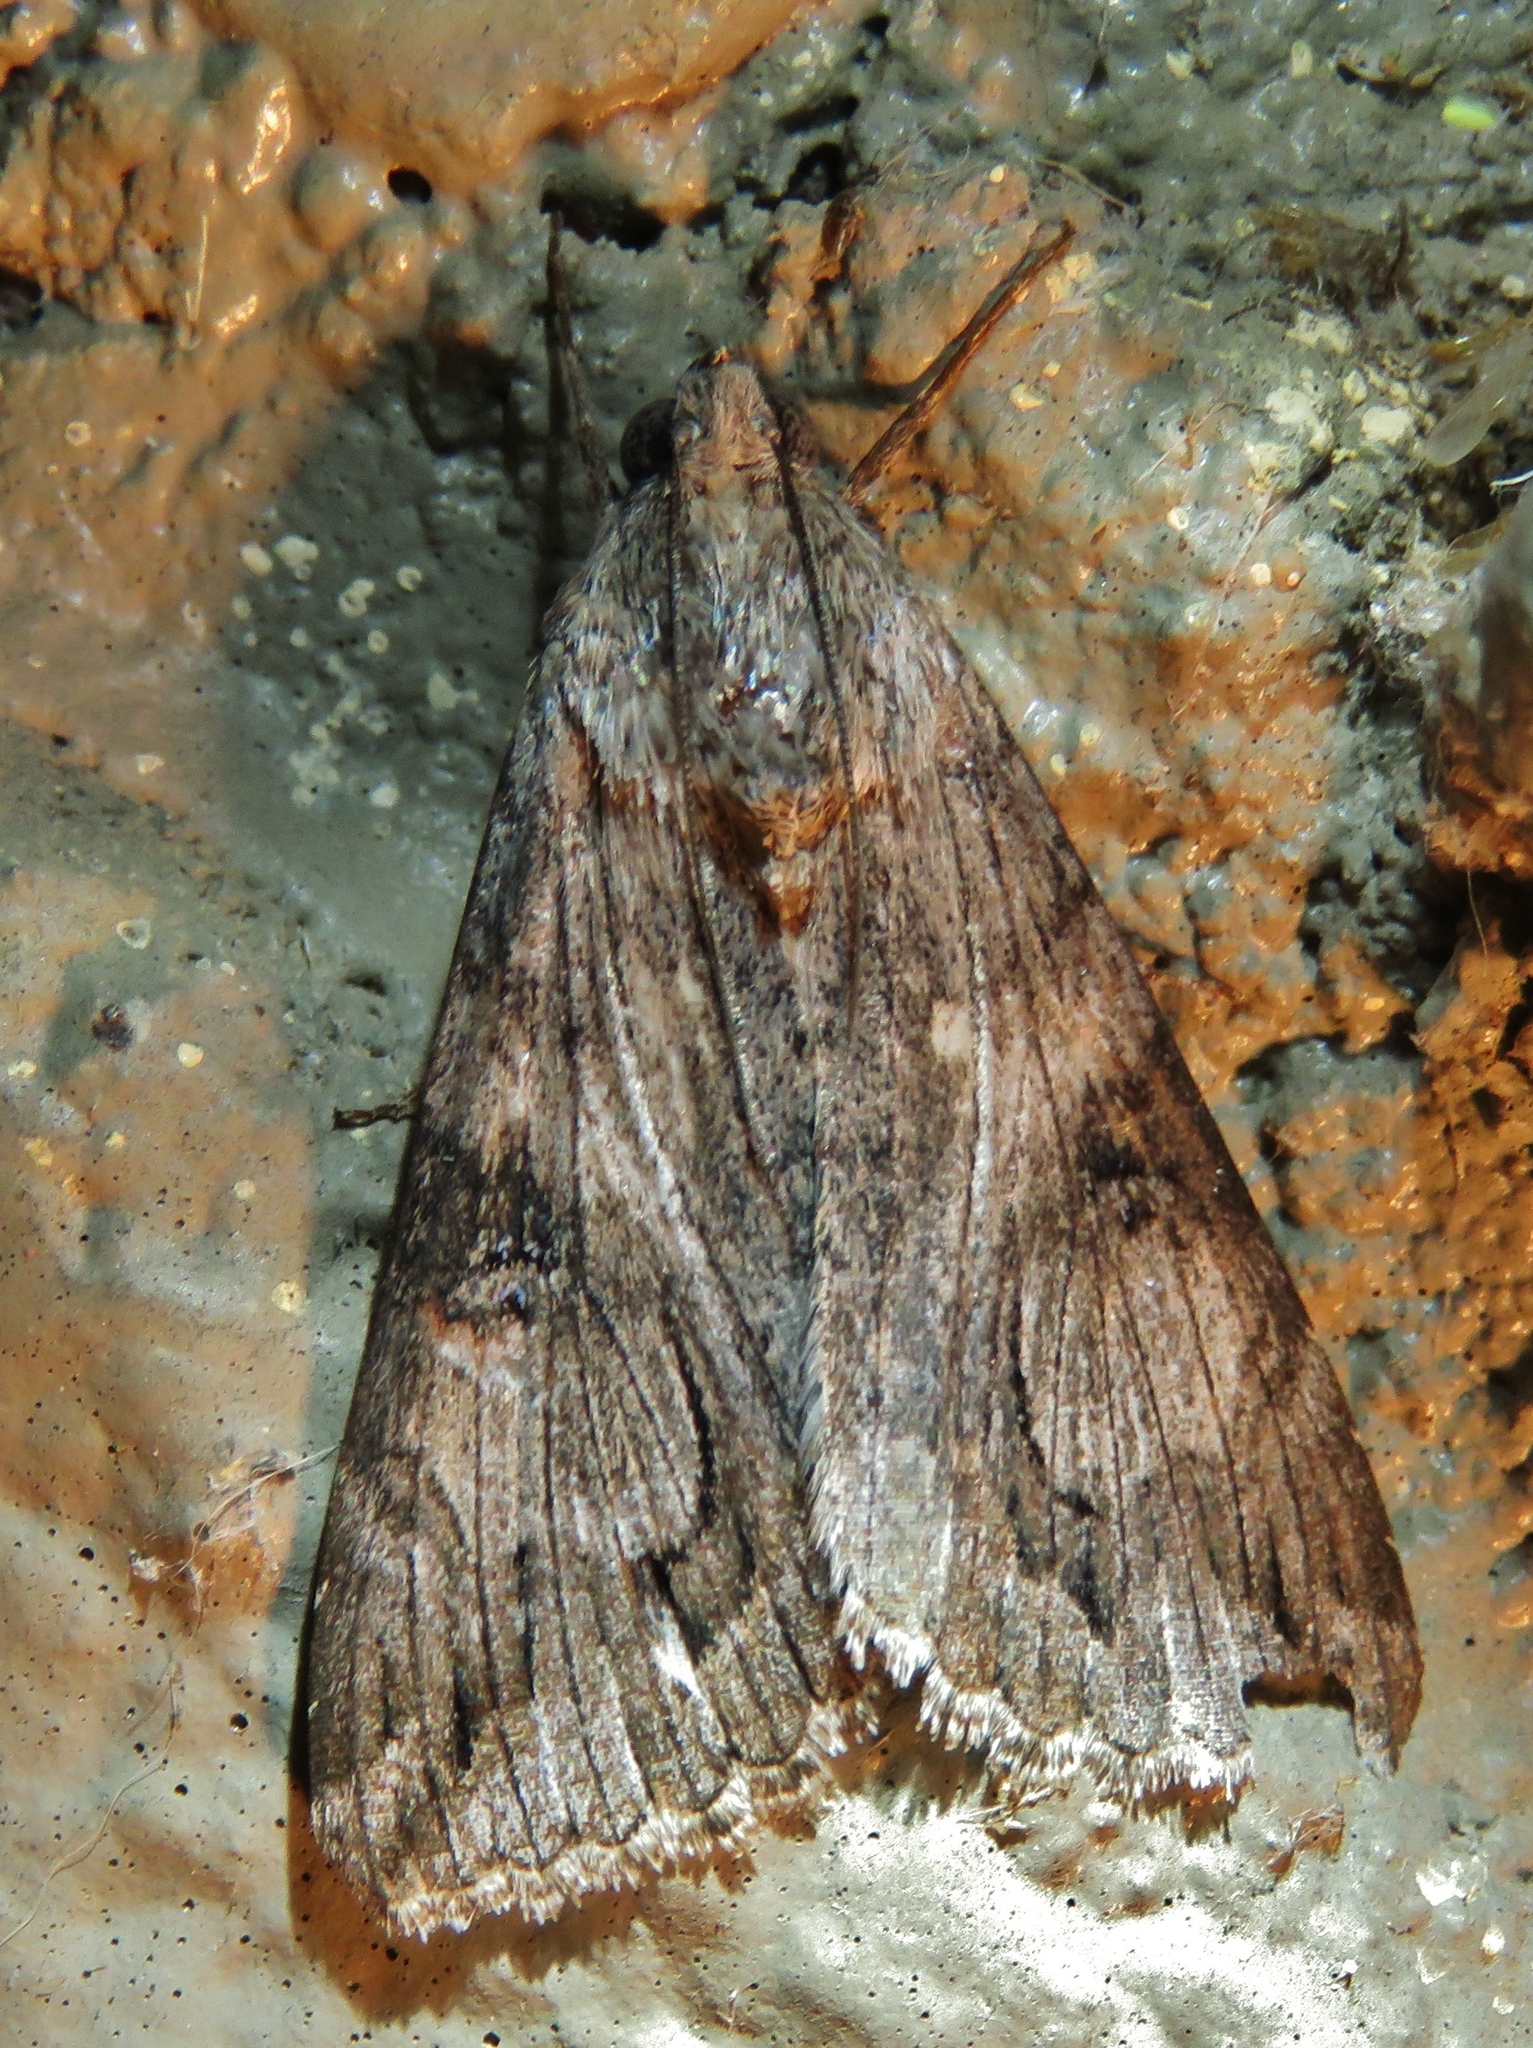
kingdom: Animalia
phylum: Arthropoda
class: Insecta
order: Lepidoptera
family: Erebidae
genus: Melipotis
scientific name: Melipotis jucunda
